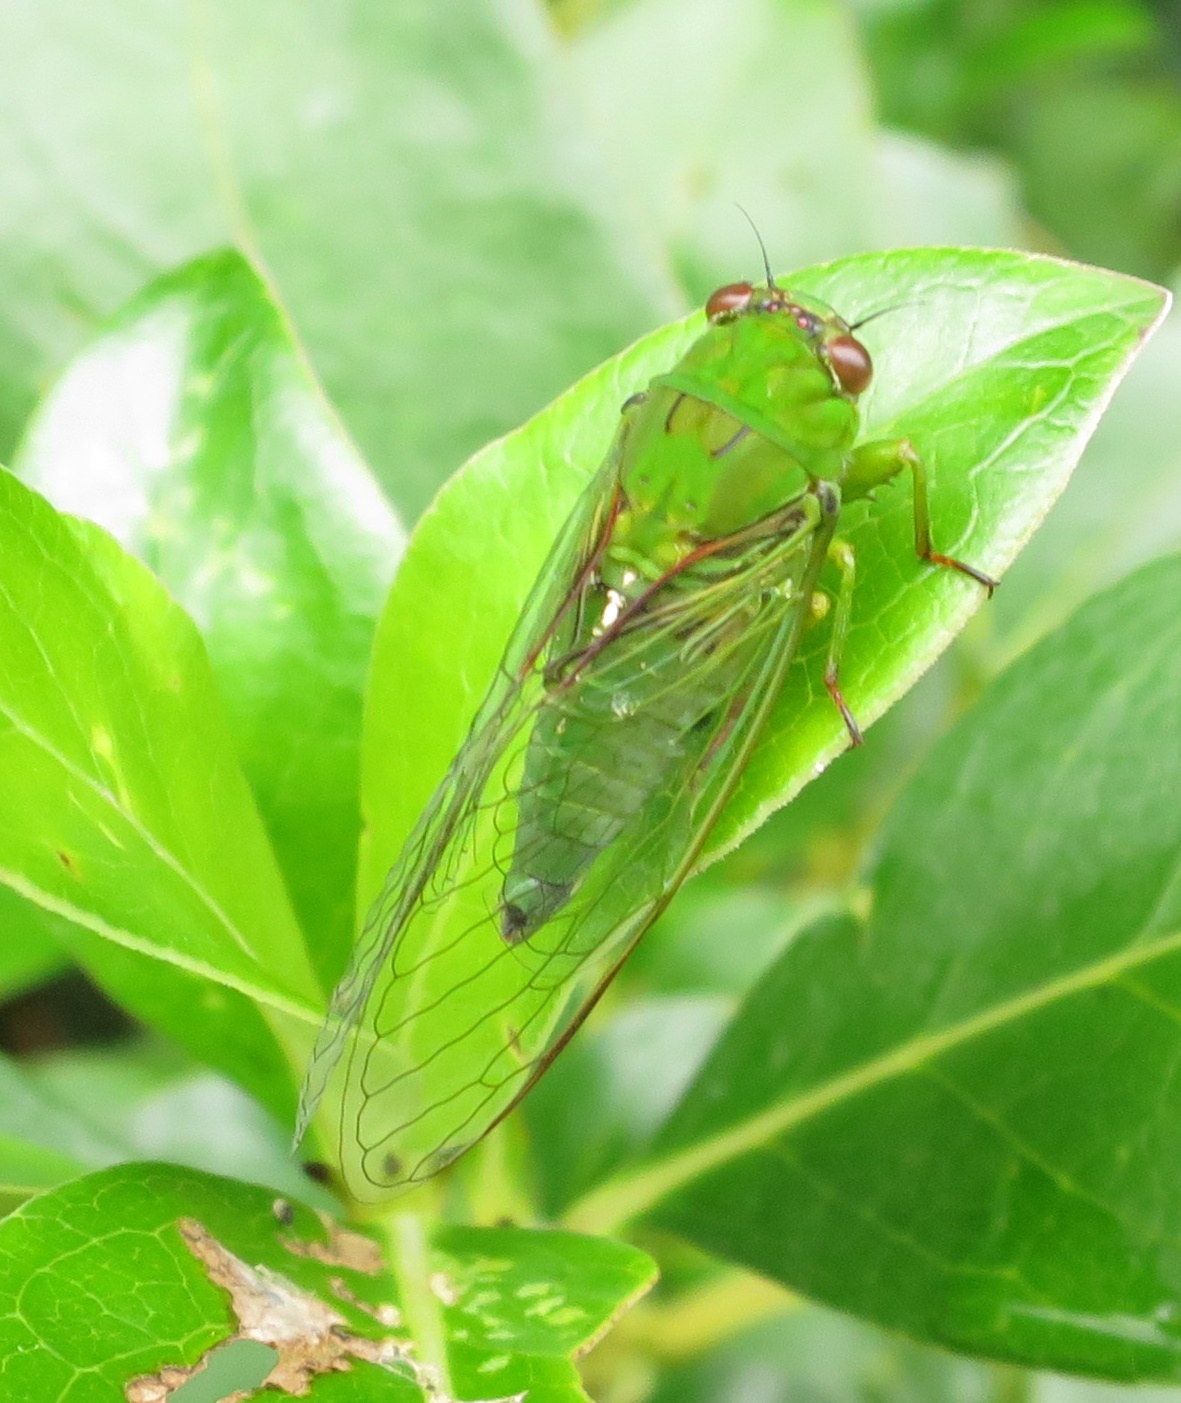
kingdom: Animalia
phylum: Arthropoda
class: Insecta
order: Hemiptera
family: Cicadidae
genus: Kikihia
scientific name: Kikihia ochrina
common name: April green cicada
